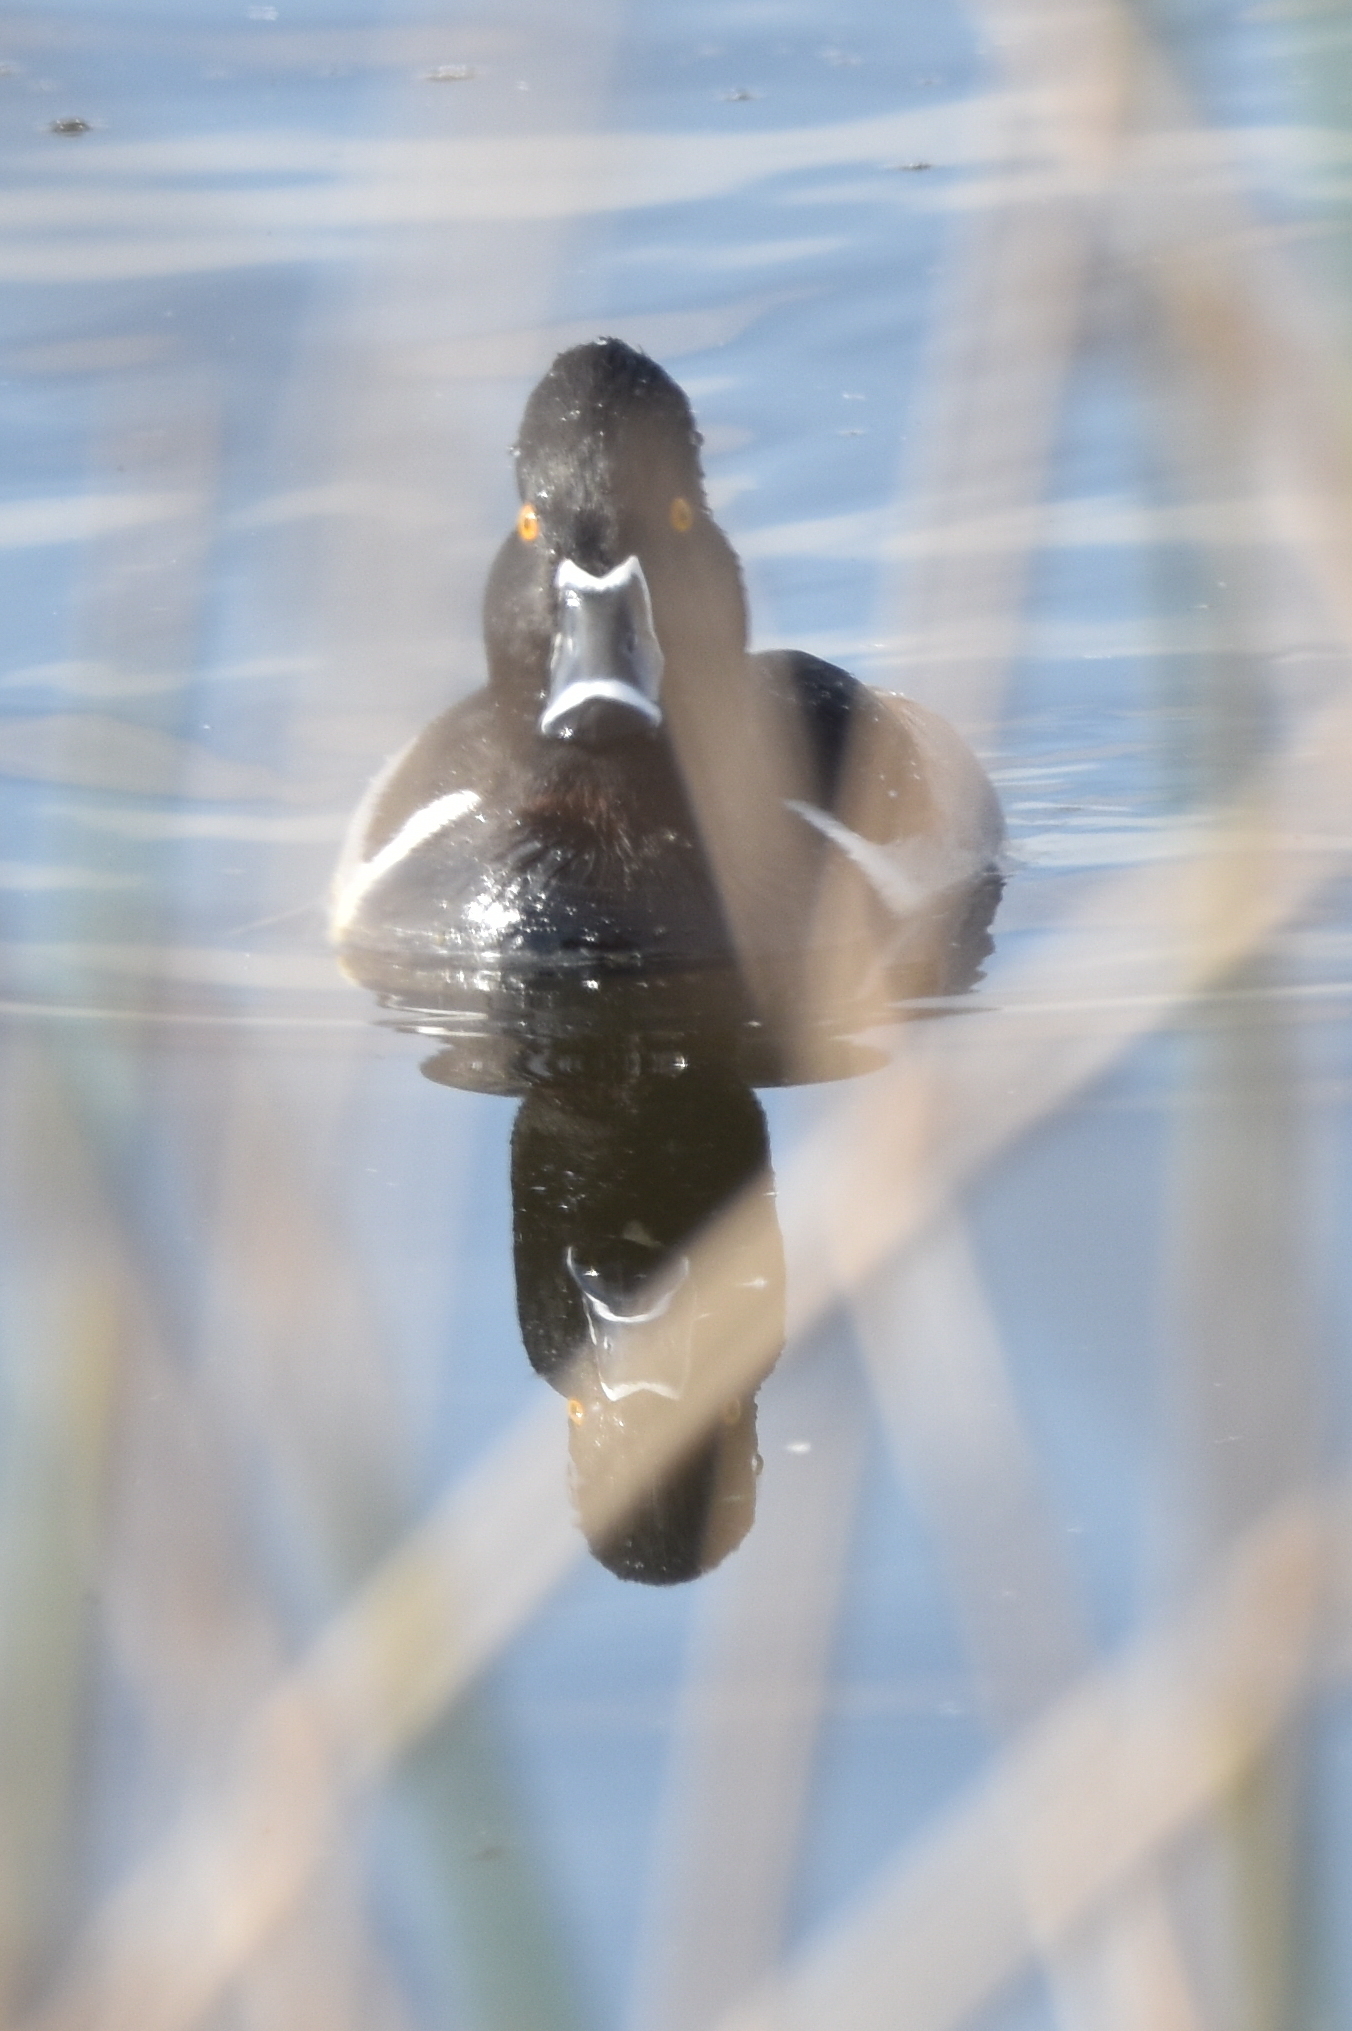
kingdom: Animalia
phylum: Chordata
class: Aves
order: Anseriformes
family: Anatidae
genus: Aythya
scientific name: Aythya collaris
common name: Ring-necked duck
